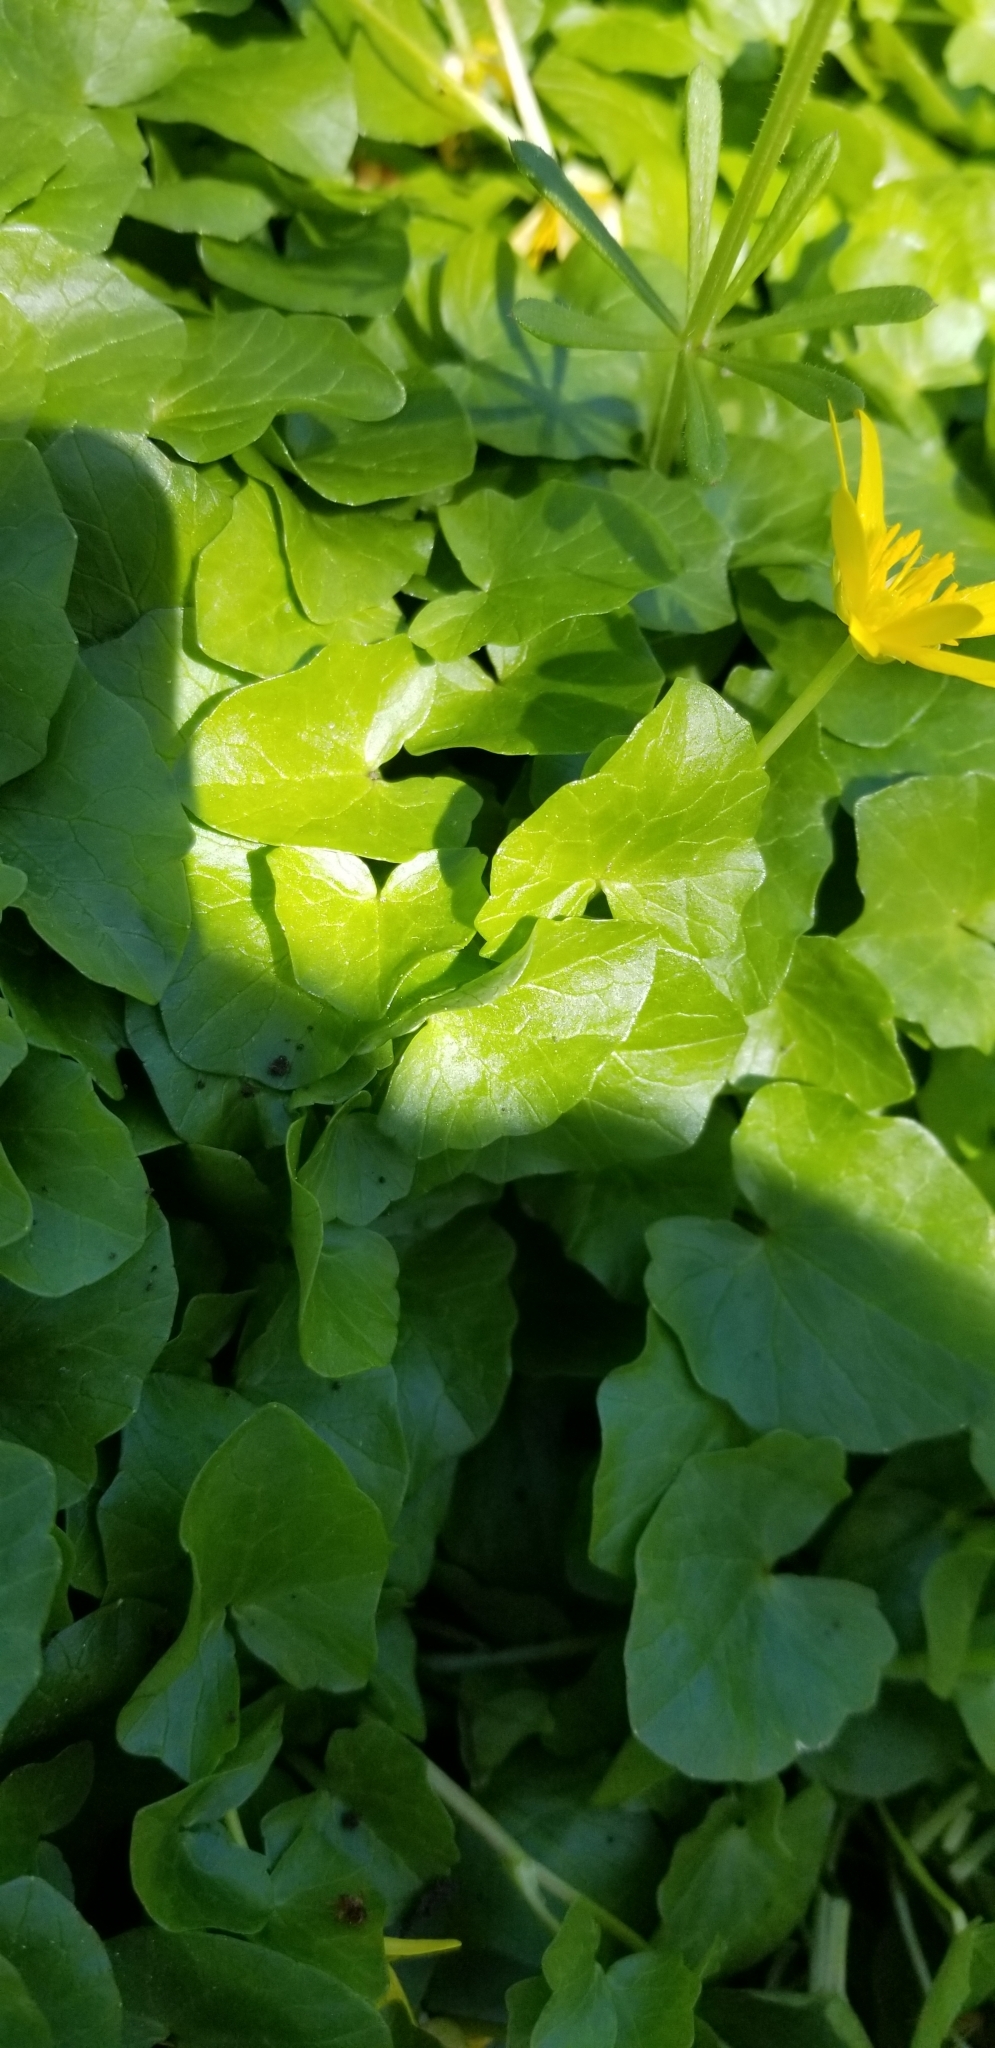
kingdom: Plantae
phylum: Tracheophyta
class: Magnoliopsida
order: Ranunculales
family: Ranunculaceae
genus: Ficaria
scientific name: Ficaria verna
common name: Lesser celandine
